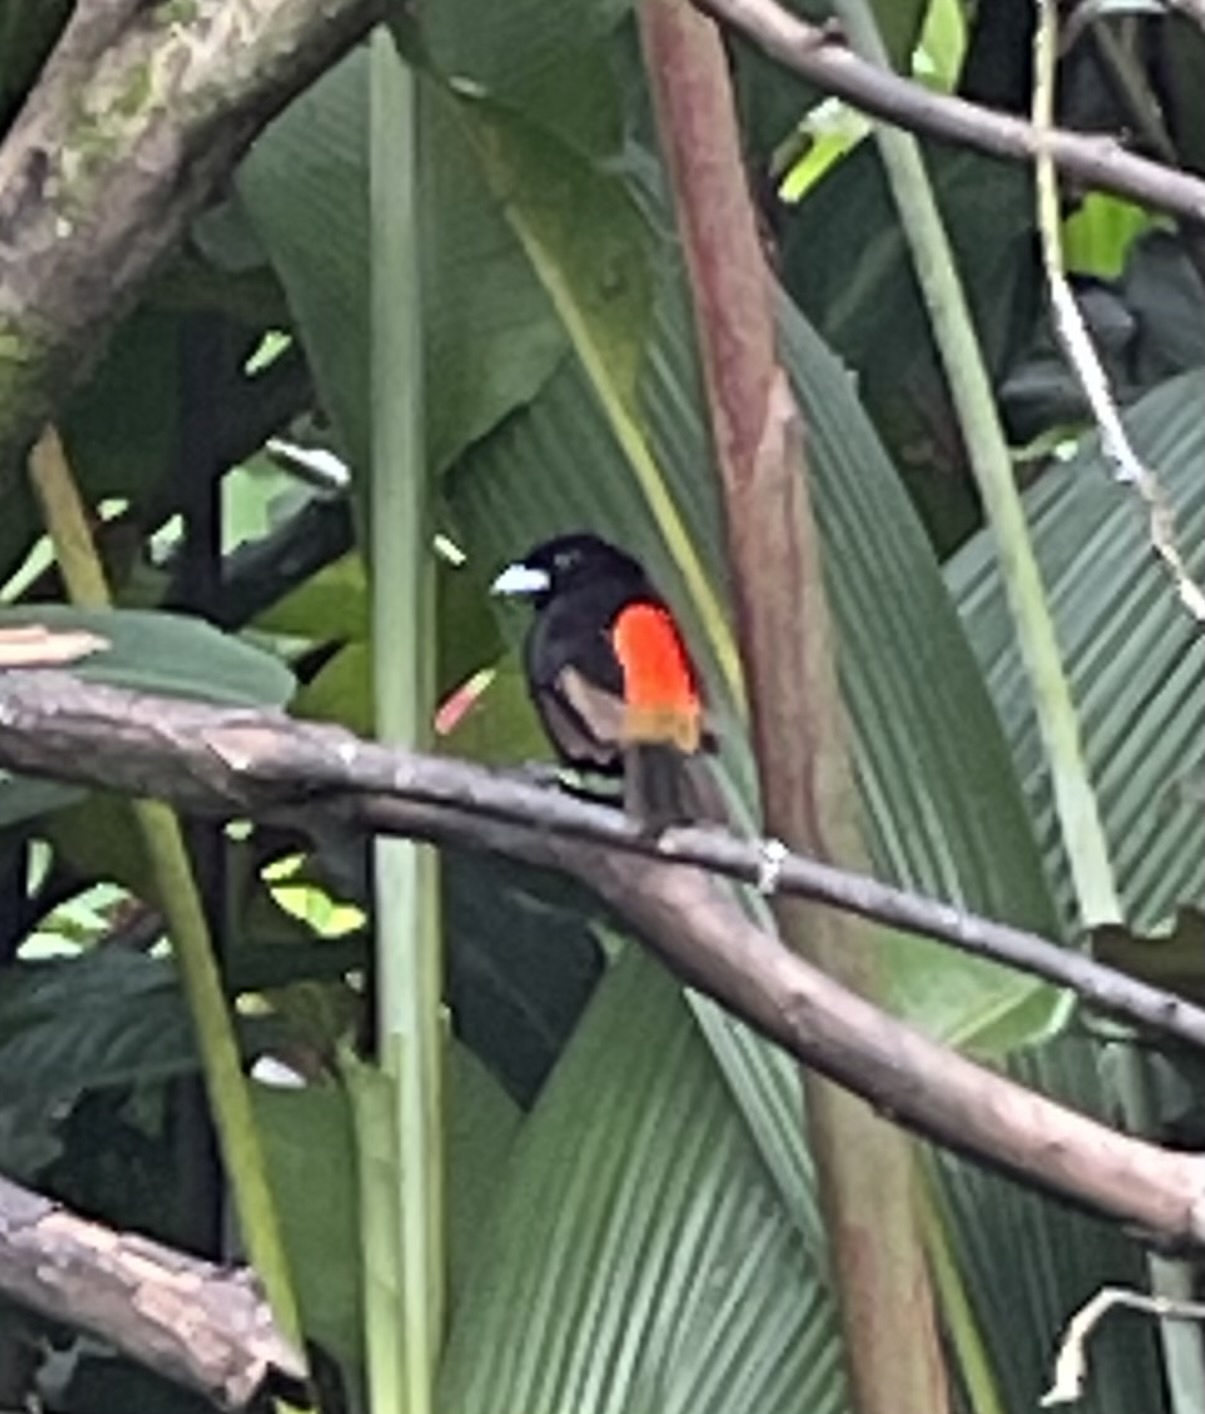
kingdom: Animalia
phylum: Chordata
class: Aves
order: Passeriformes
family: Thraupidae
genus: Ramphocelus
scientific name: Ramphocelus passerinii
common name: Passerini's tanager
